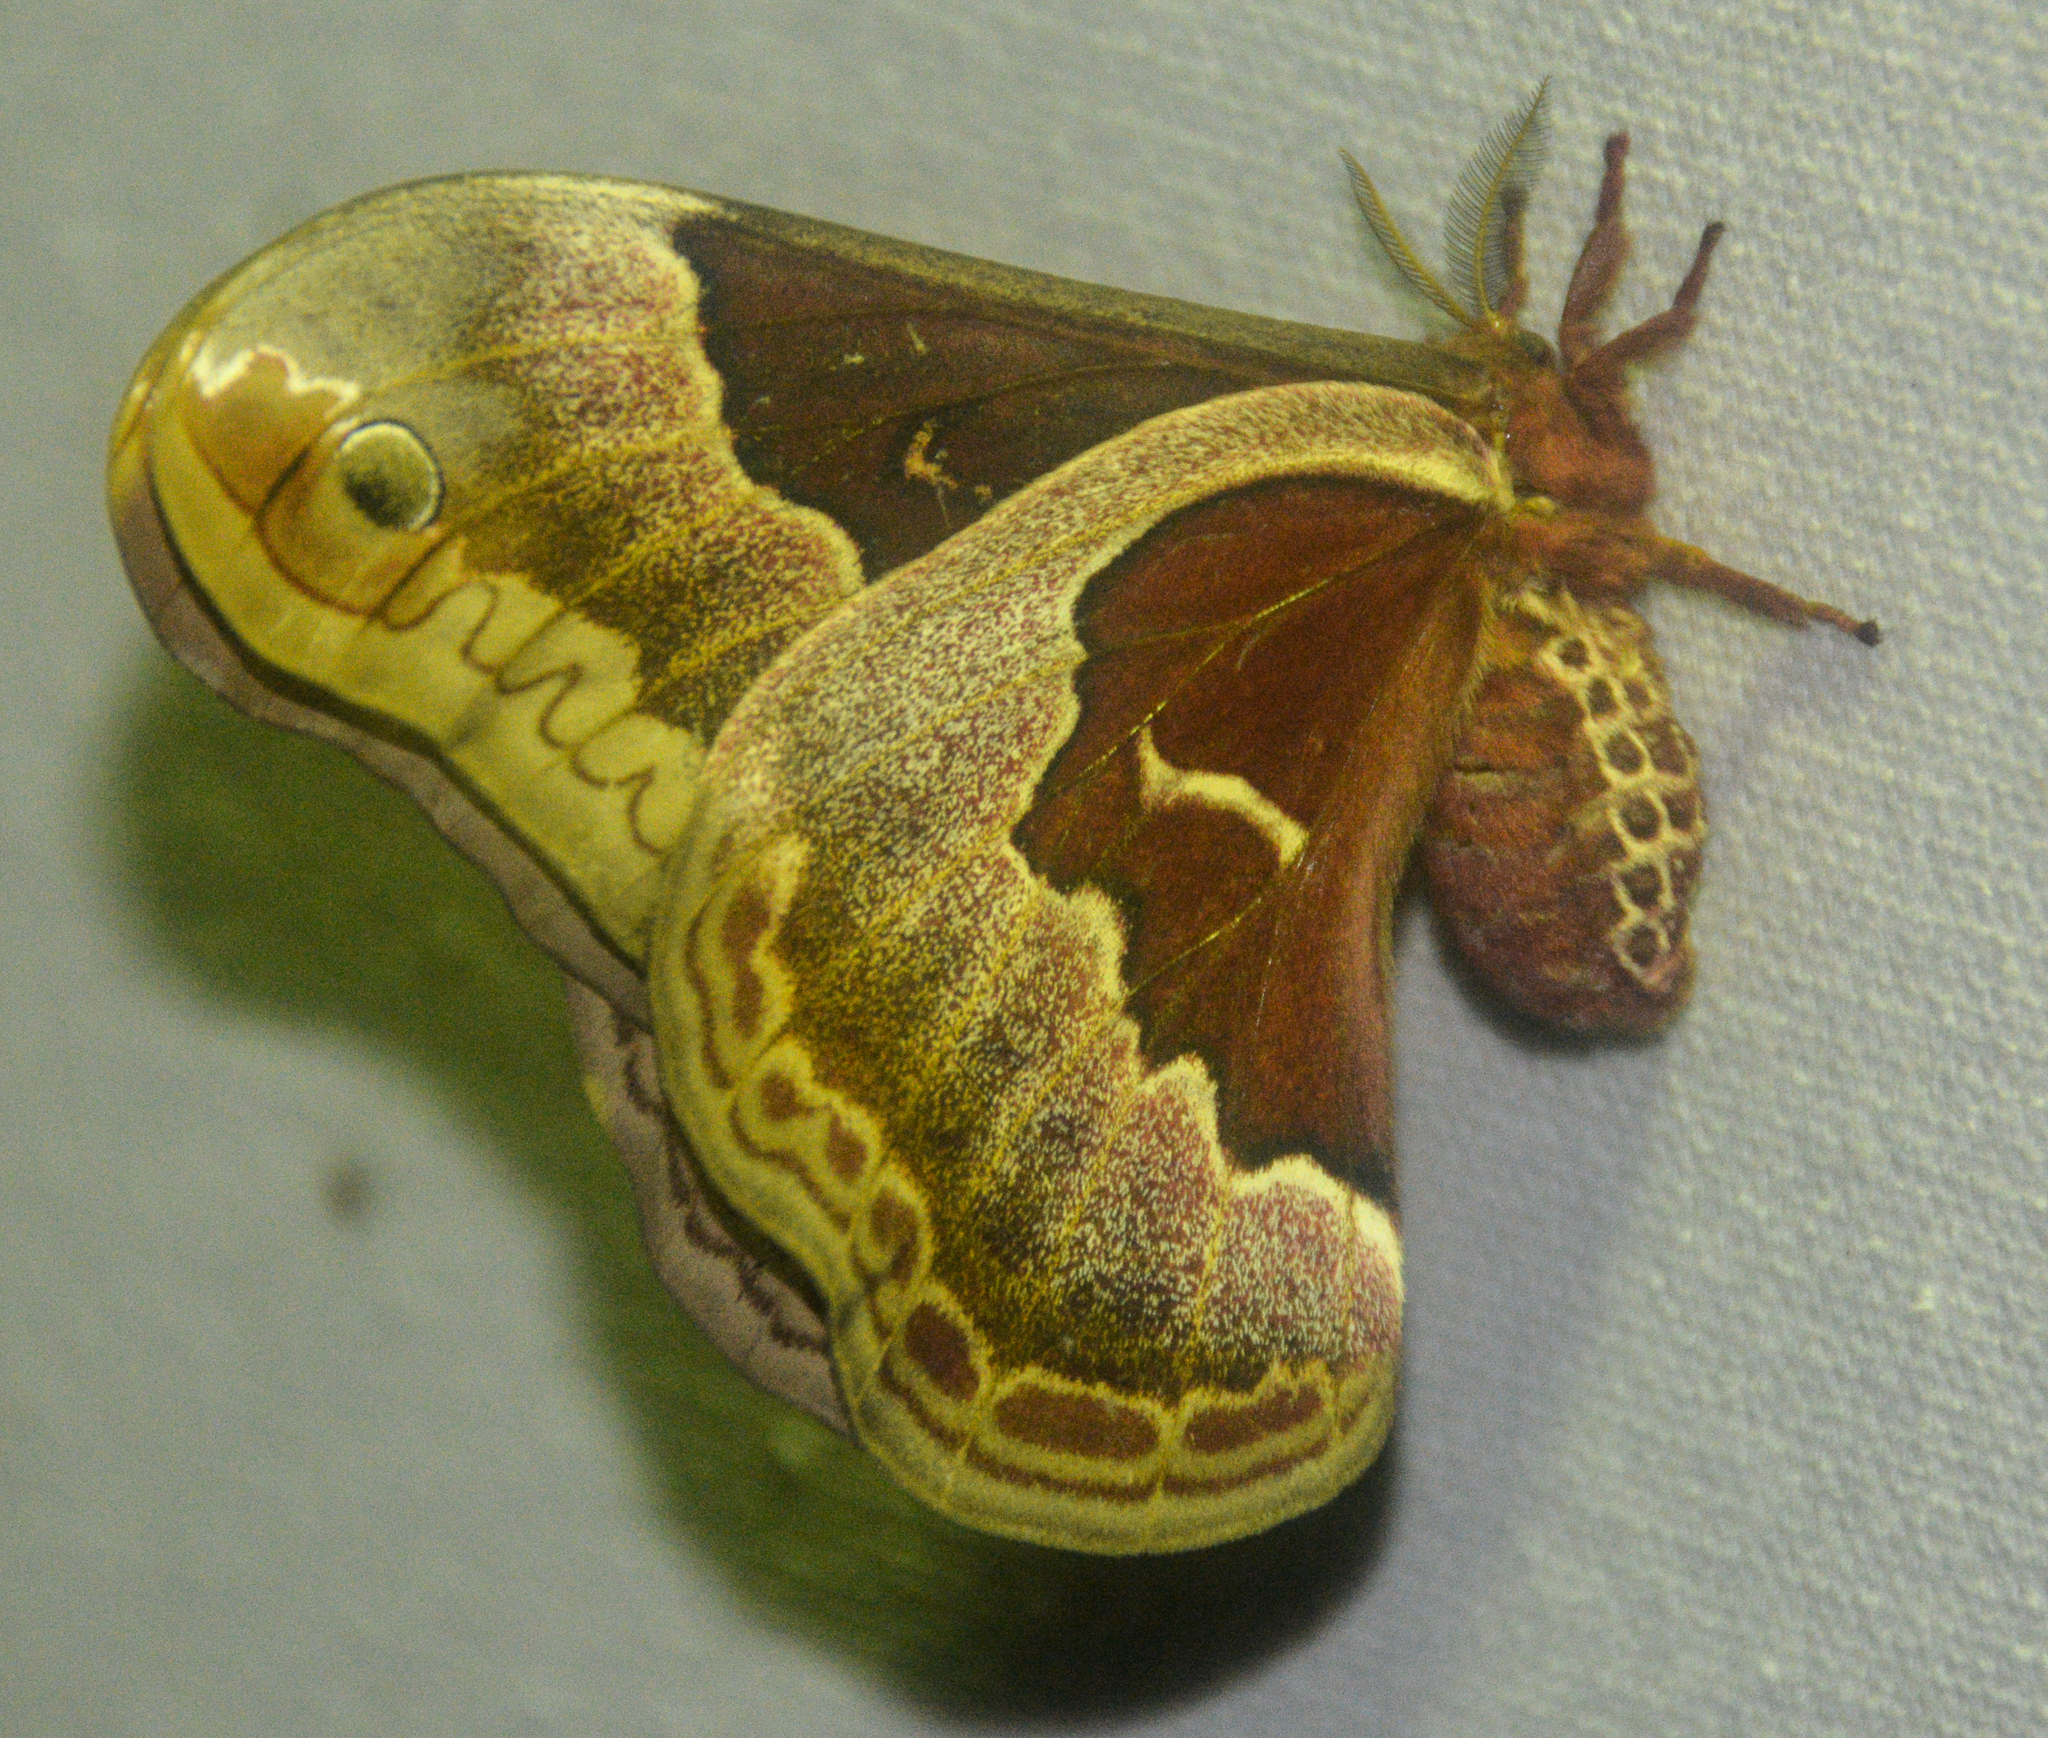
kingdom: Animalia
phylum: Arthropoda
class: Insecta
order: Lepidoptera
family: Saturniidae
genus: Callosamia
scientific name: Callosamia promethea
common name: Promethea silkmoth
